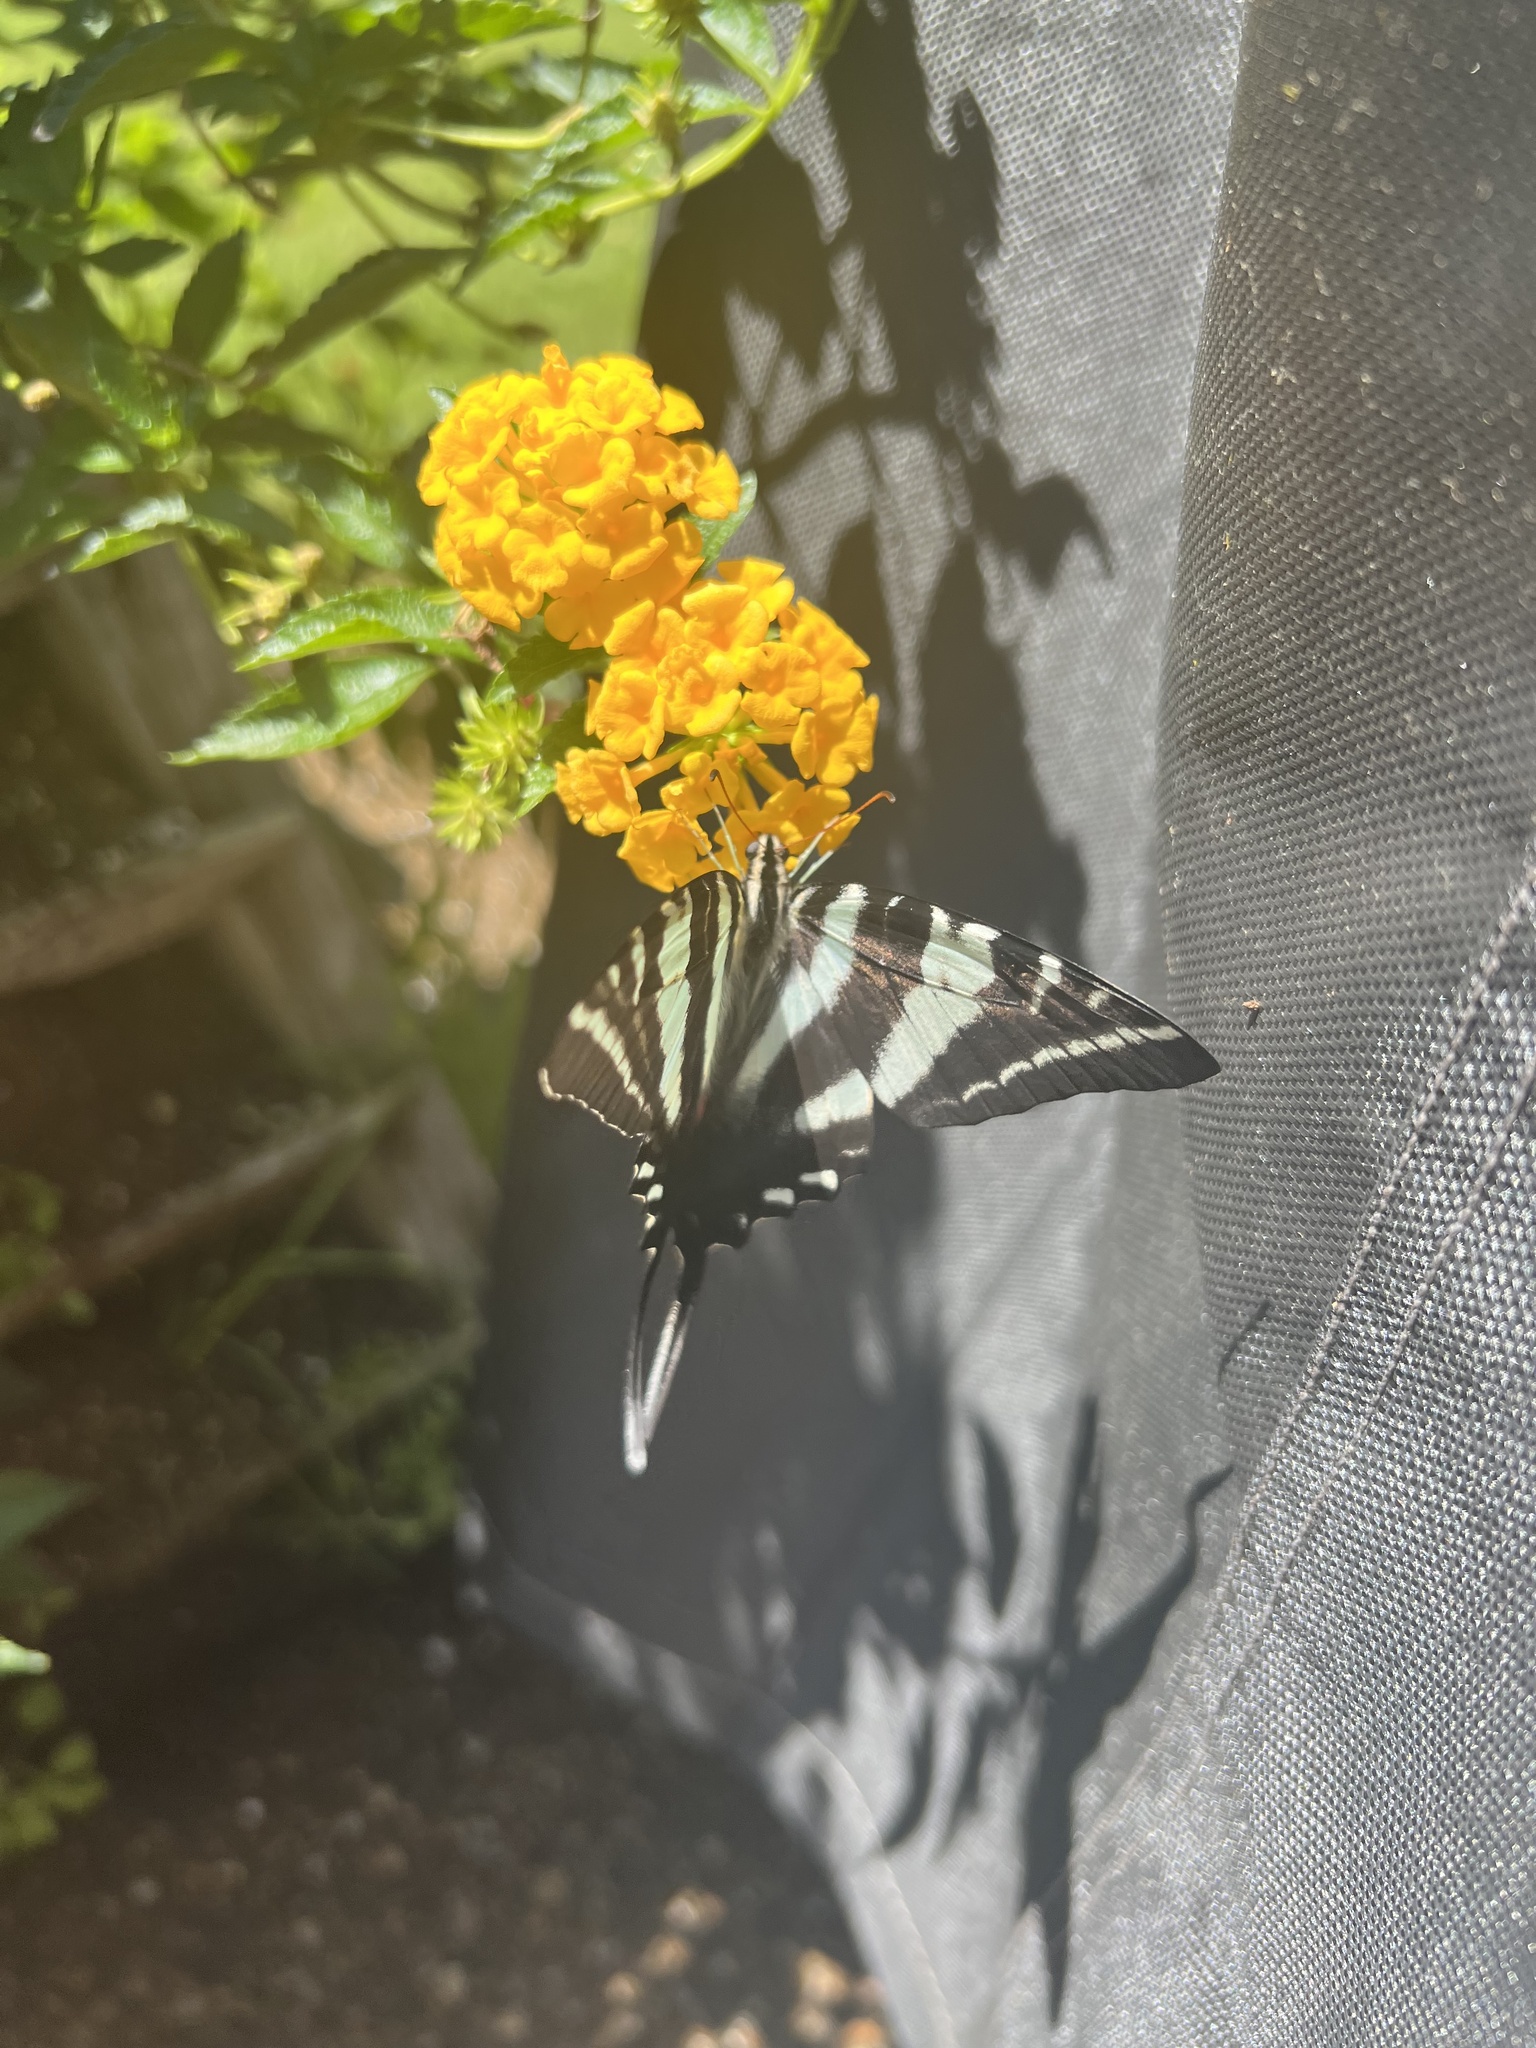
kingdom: Animalia
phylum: Arthropoda
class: Insecta
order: Lepidoptera
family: Papilionidae
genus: Protographium
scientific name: Protographium marcellus
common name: Zebra swallowtail
